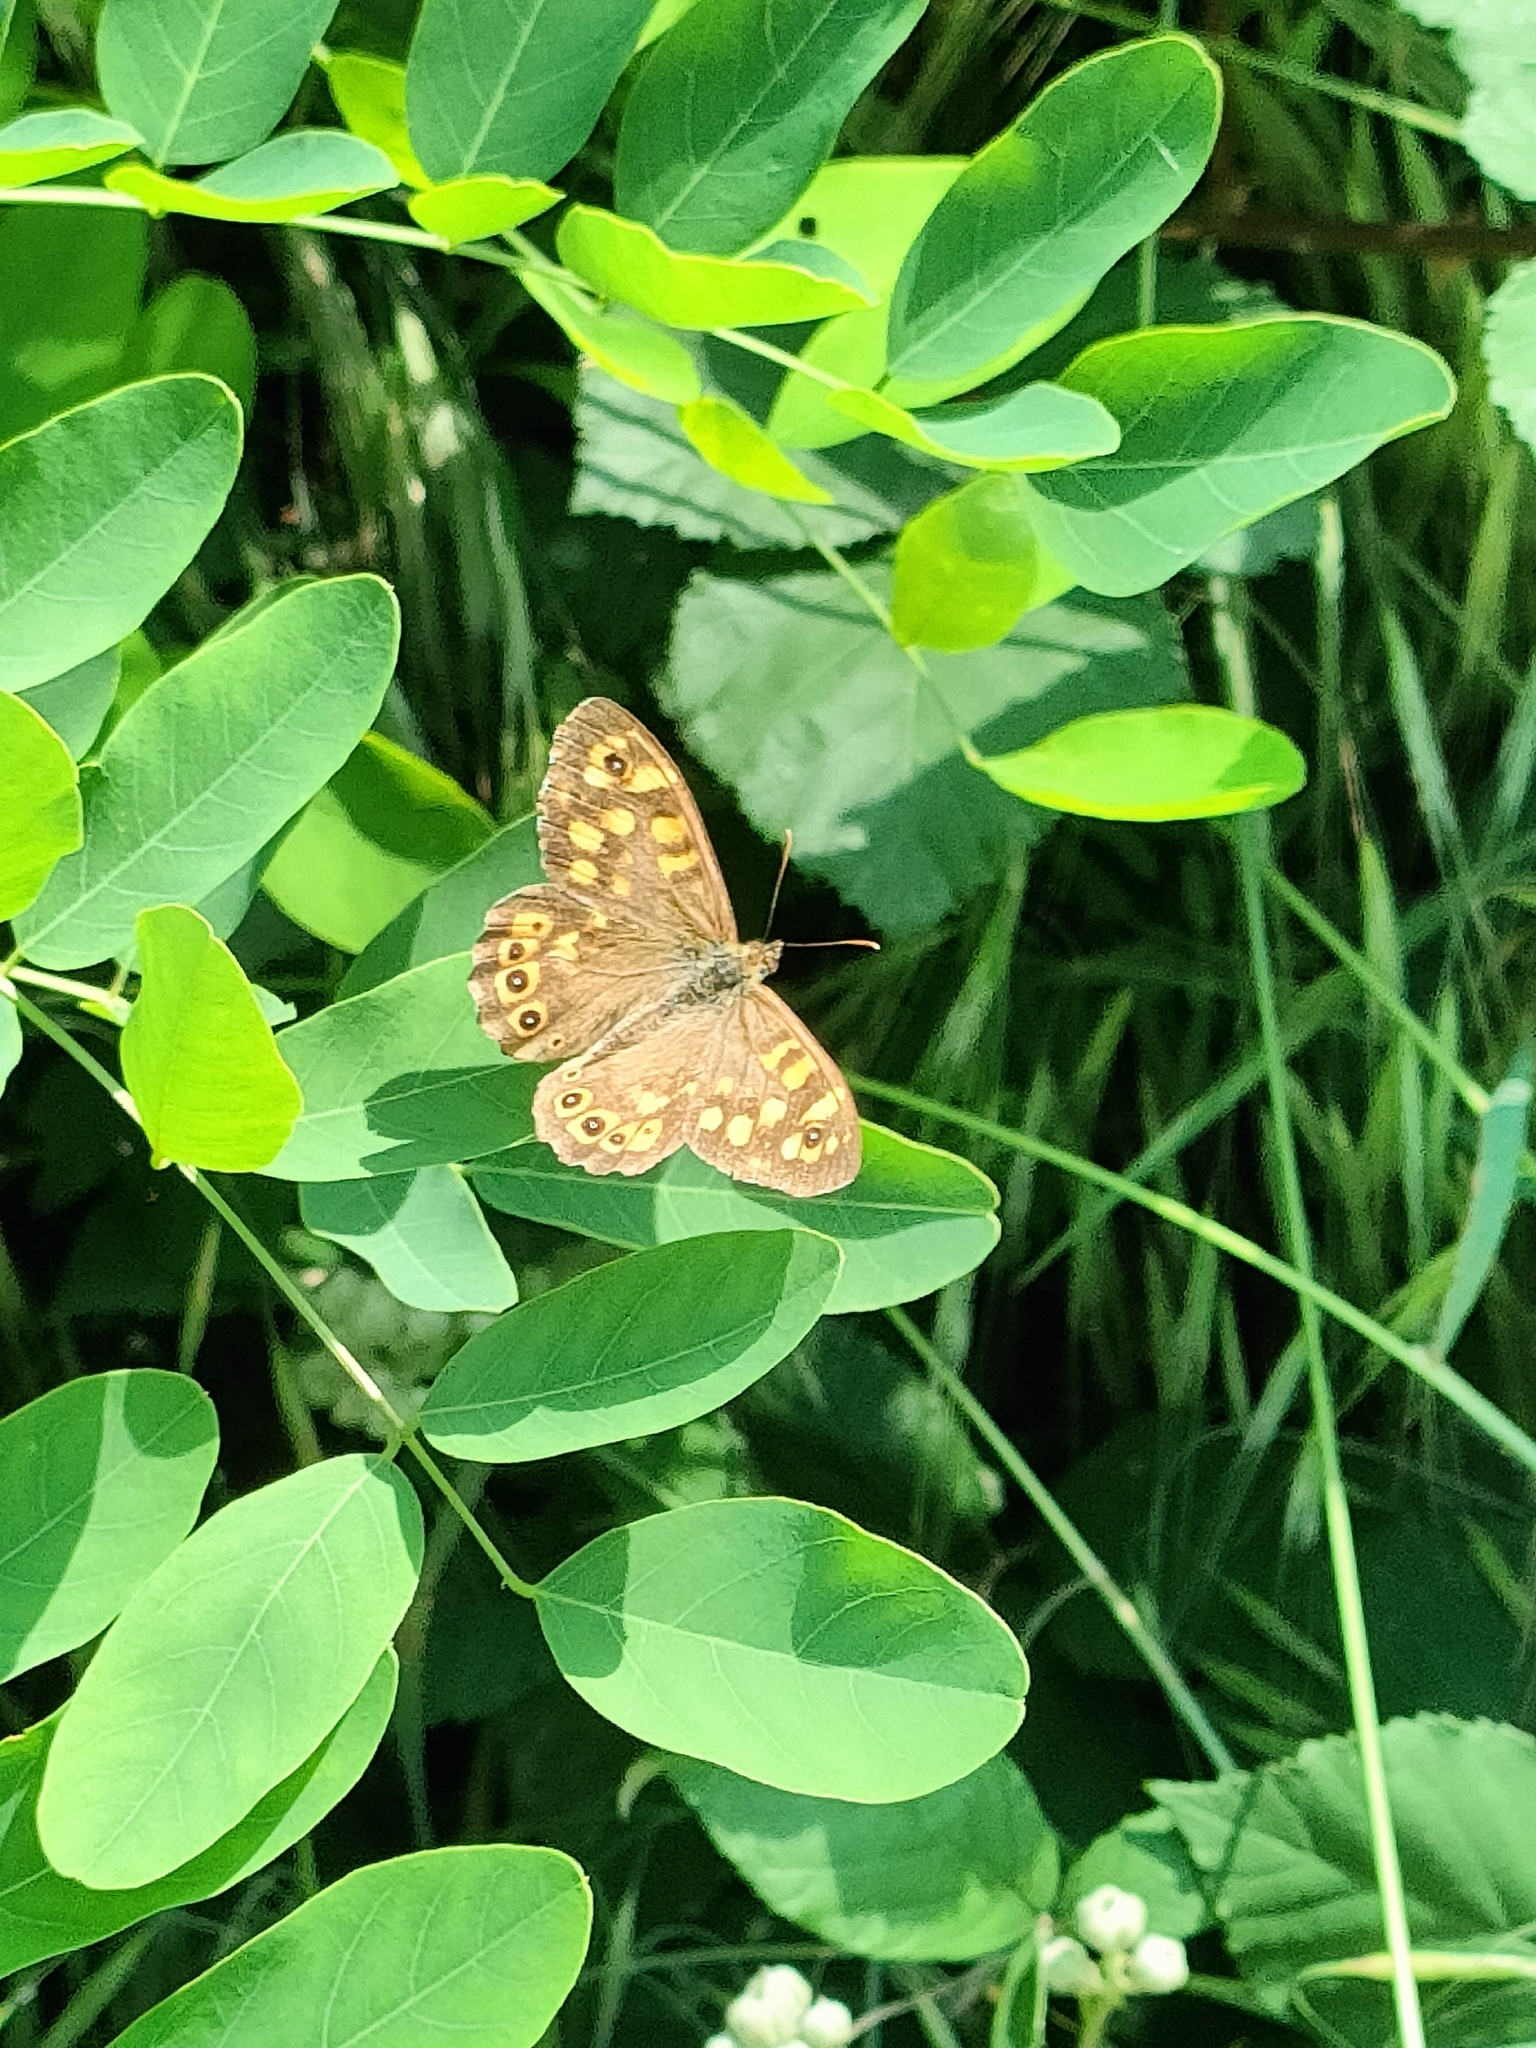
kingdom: Animalia
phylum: Arthropoda
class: Insecta
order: Lepidoptera
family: Nymphalidae
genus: Pararge
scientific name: Pararge aegeria
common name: Speckled wood
